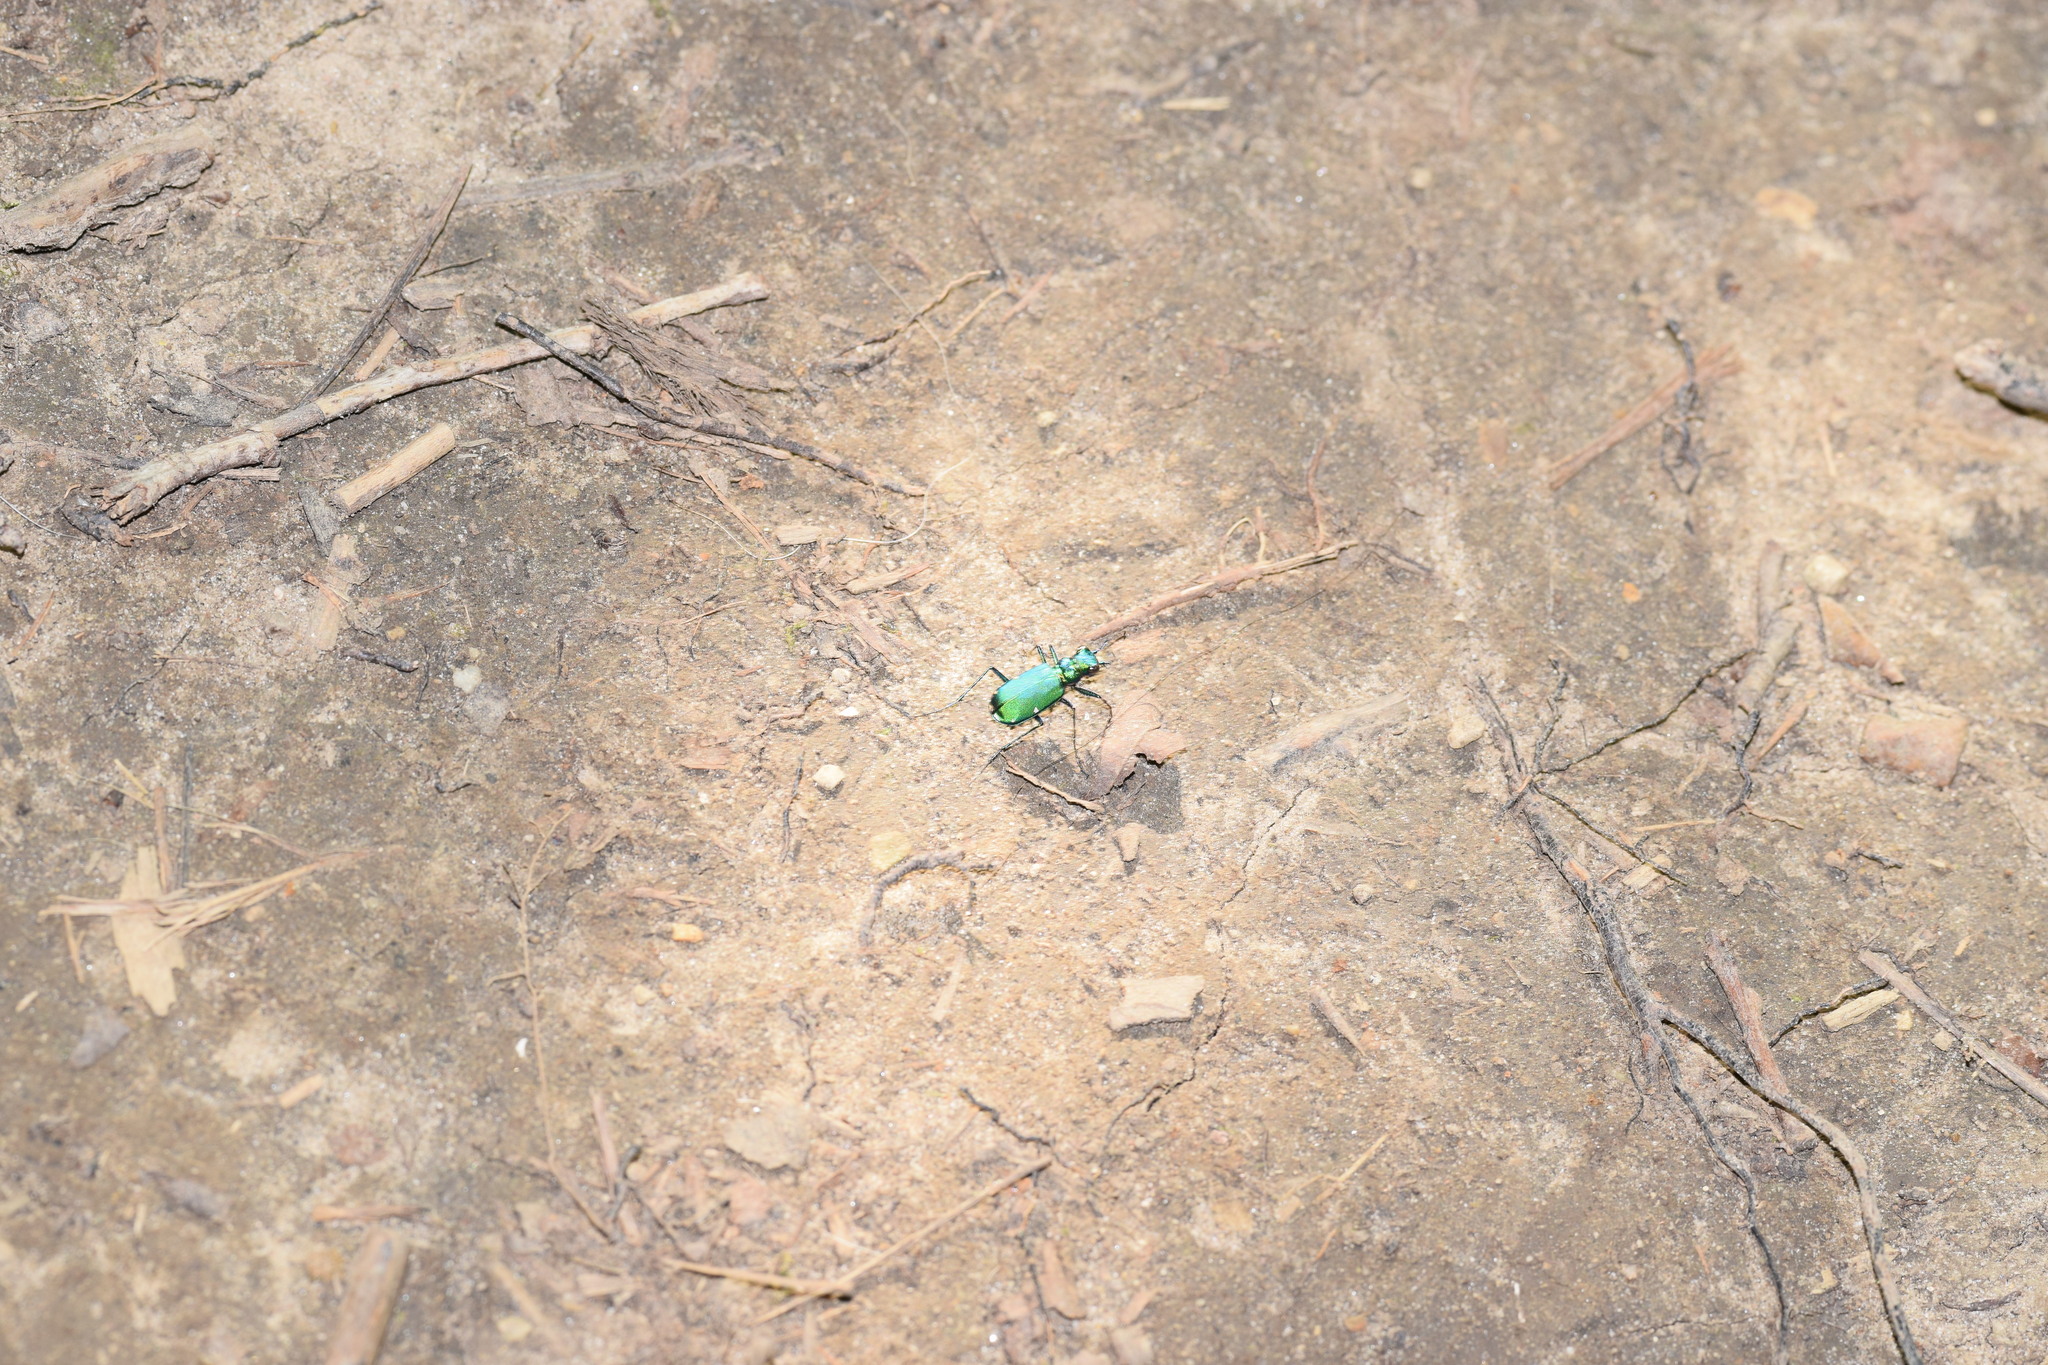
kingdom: Animalia
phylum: Arthropoda
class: Insecta
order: Coleoptera
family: Carabidae
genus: Cicindela
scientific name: Cicindela sexguttata
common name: Six-spotted tiger beetle
